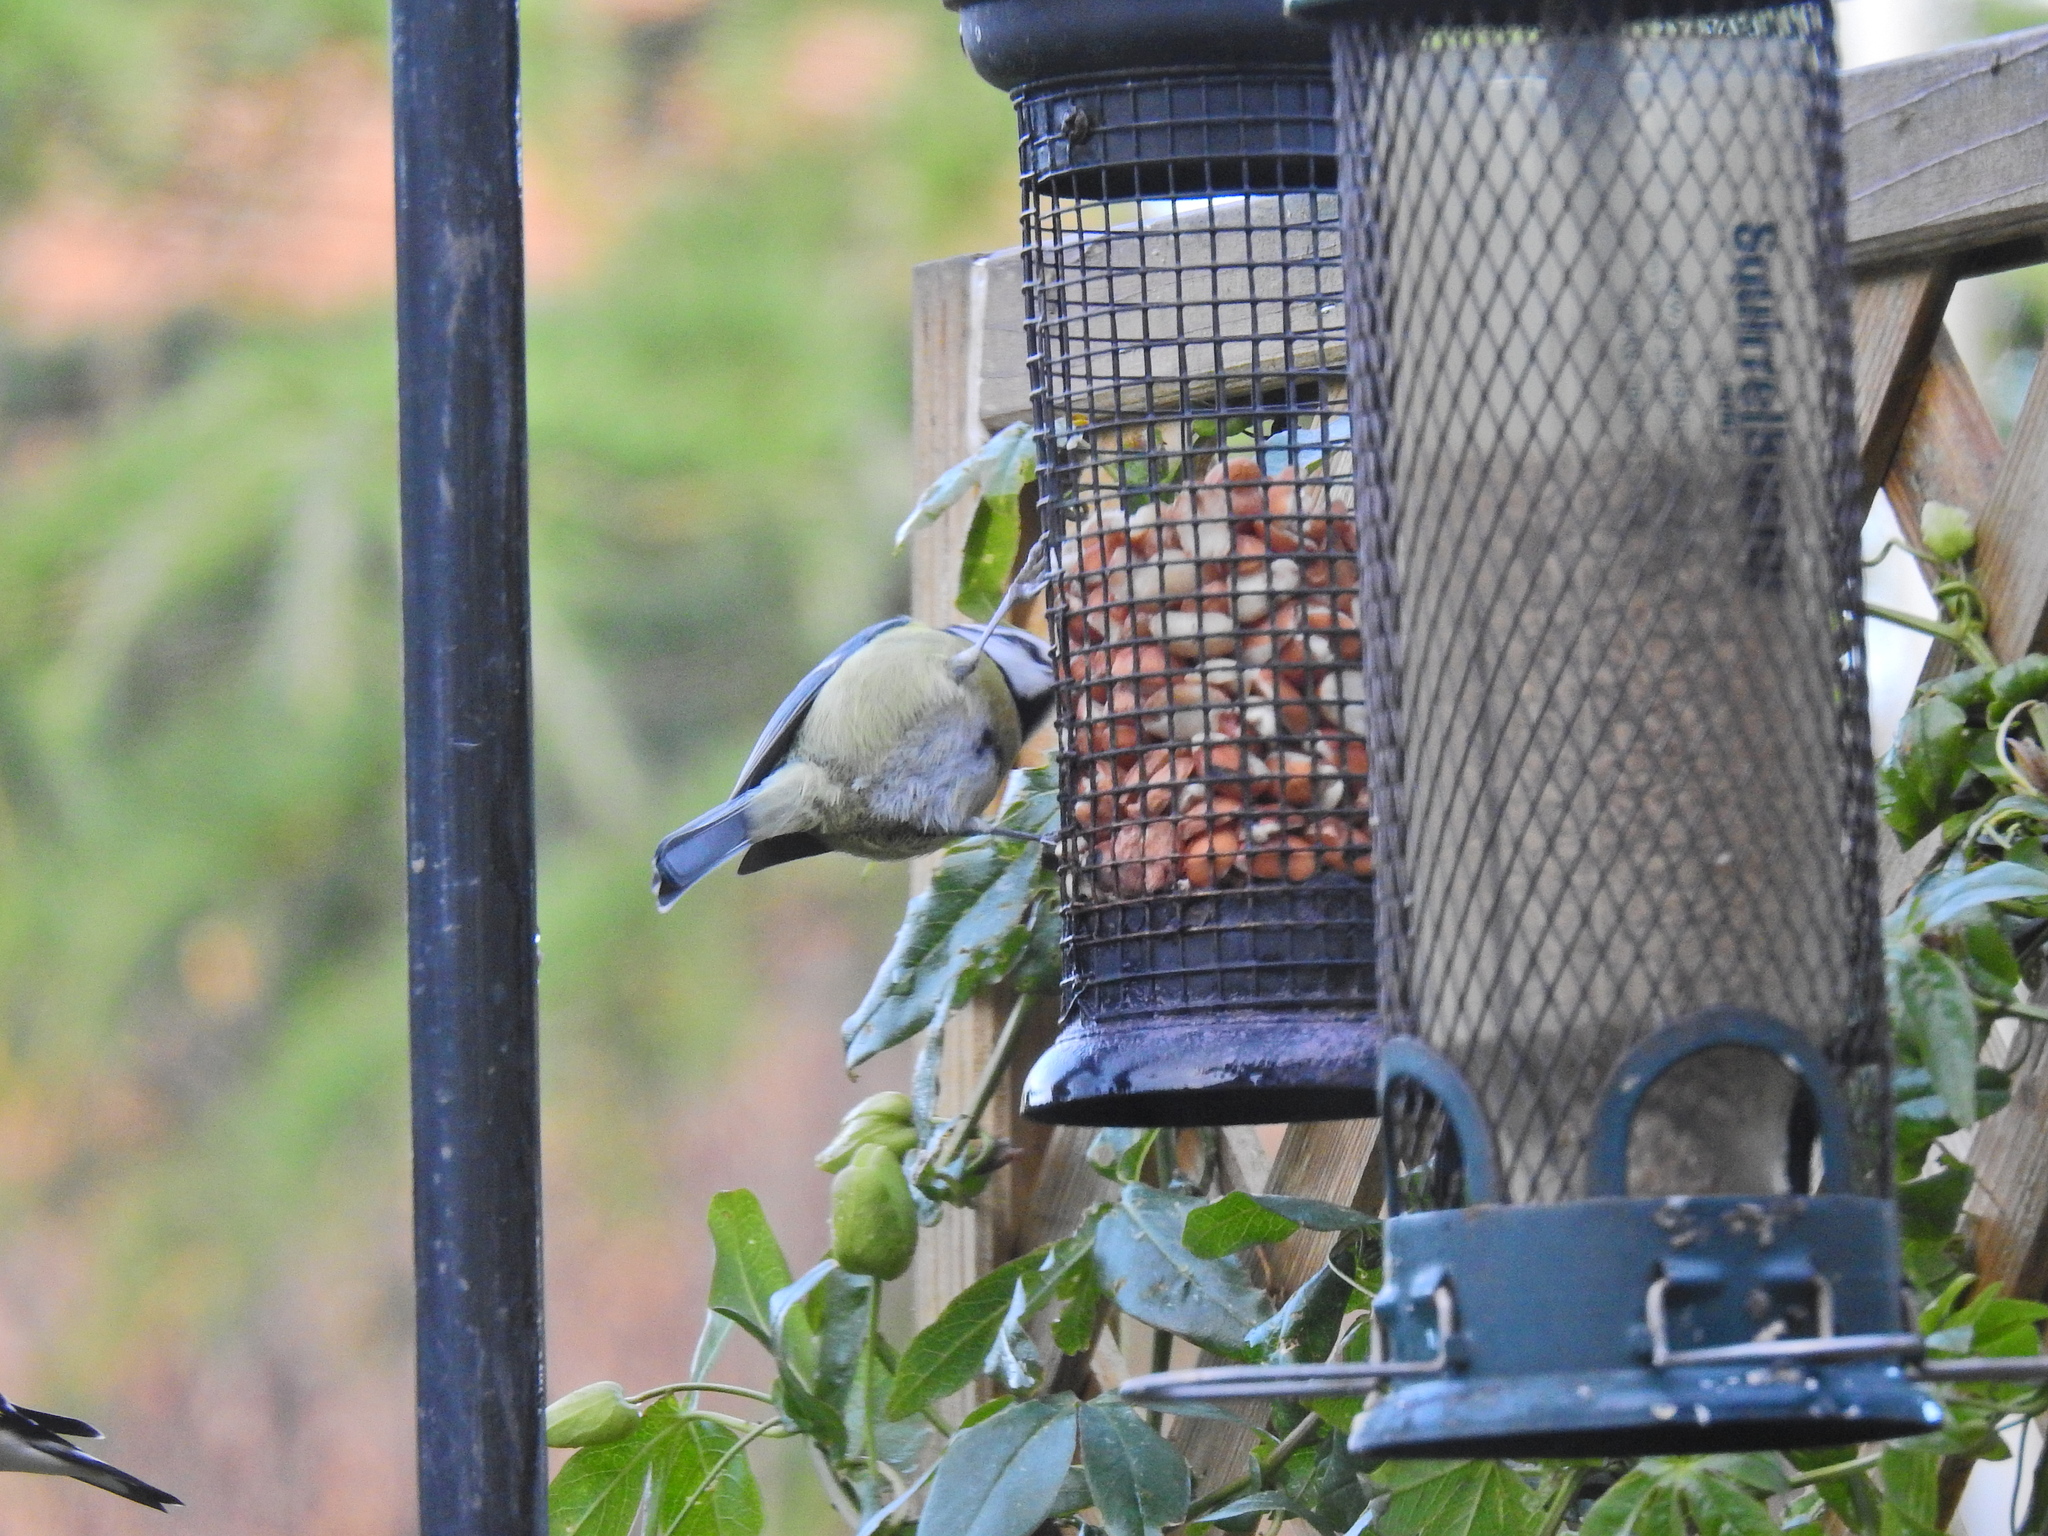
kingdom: Animalia
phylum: Chordata
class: Aves
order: Passeriformes
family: Paridae
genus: Cyanistes
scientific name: Cyanistes caeruleus
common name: Eurasian blue tit
